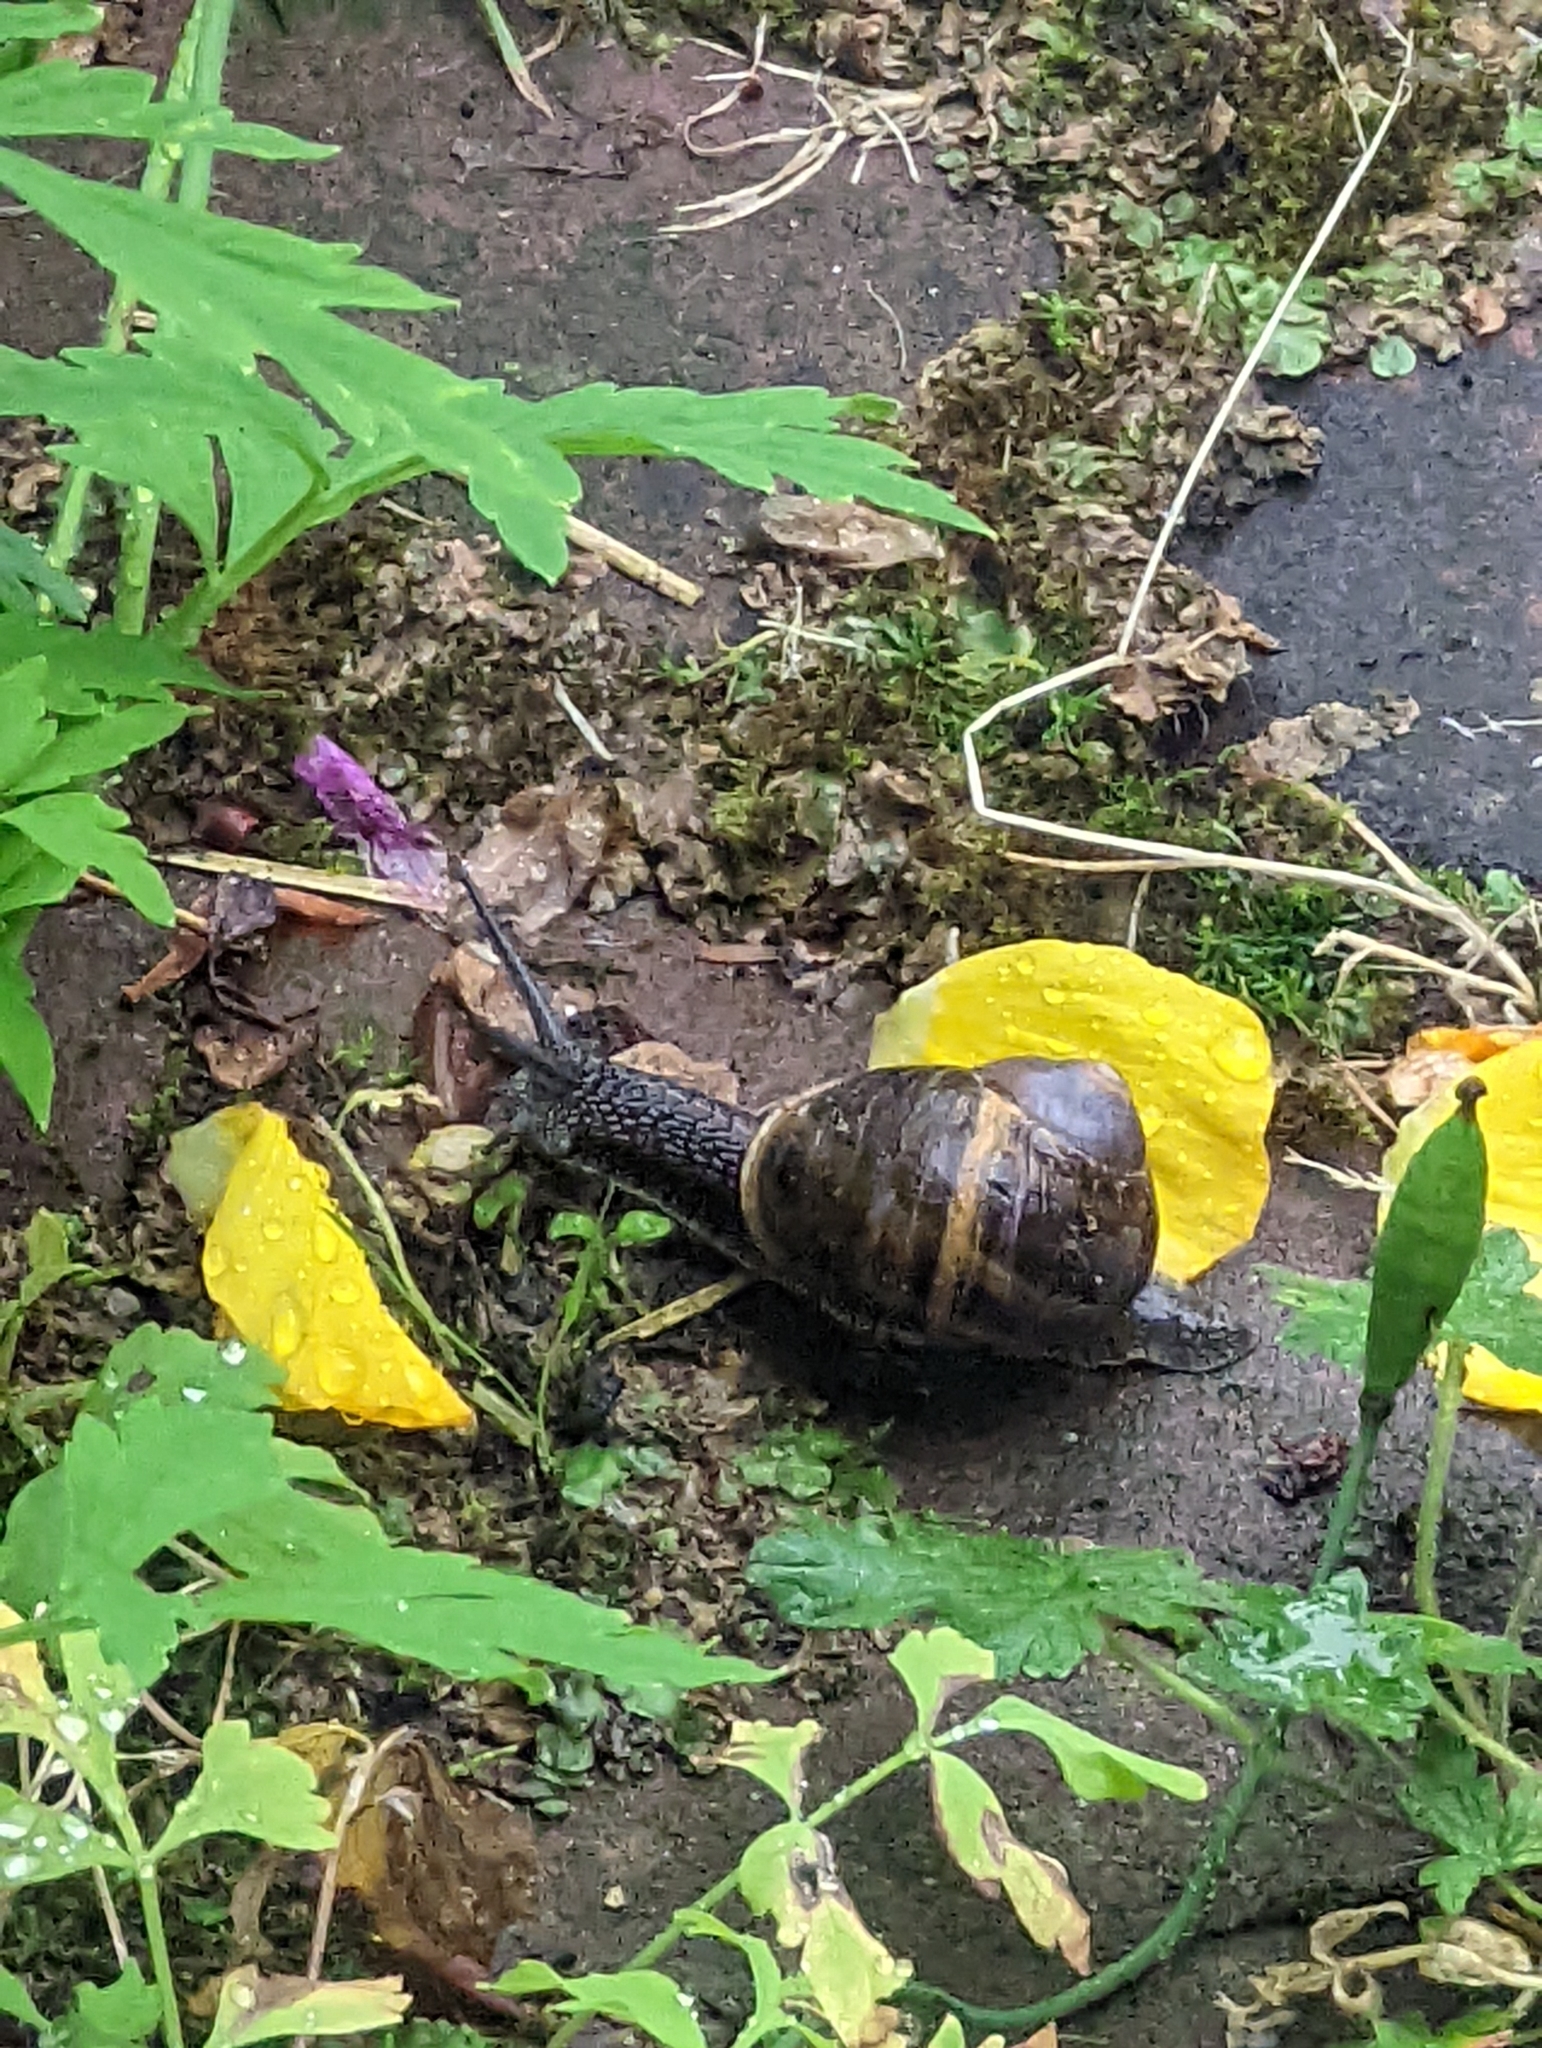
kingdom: Animalia
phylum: Mollusca
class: Gastropoda
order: Stylommatophora
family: Helicidae
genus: Cornu
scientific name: Cornu aspersum
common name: Brown garden snail
